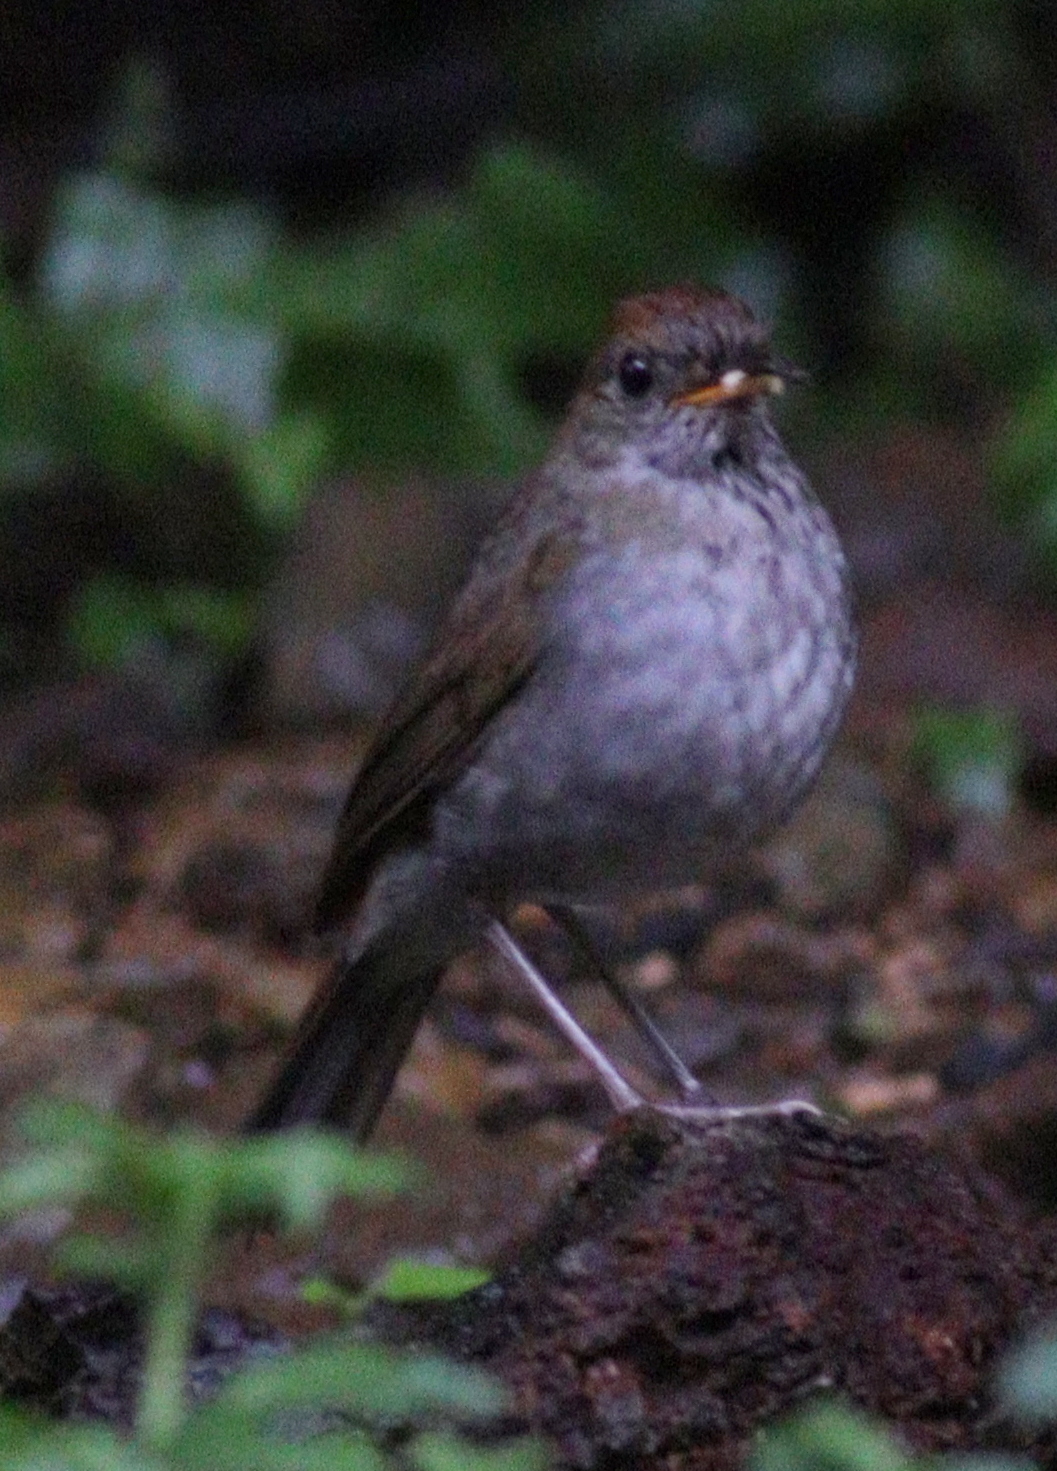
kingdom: Animalia
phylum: Chordata
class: Aves
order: Passeriformes
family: Turdidae
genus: Catharus
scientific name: Catharus frantzii
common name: Ruddy-capped nightingale-thrush
